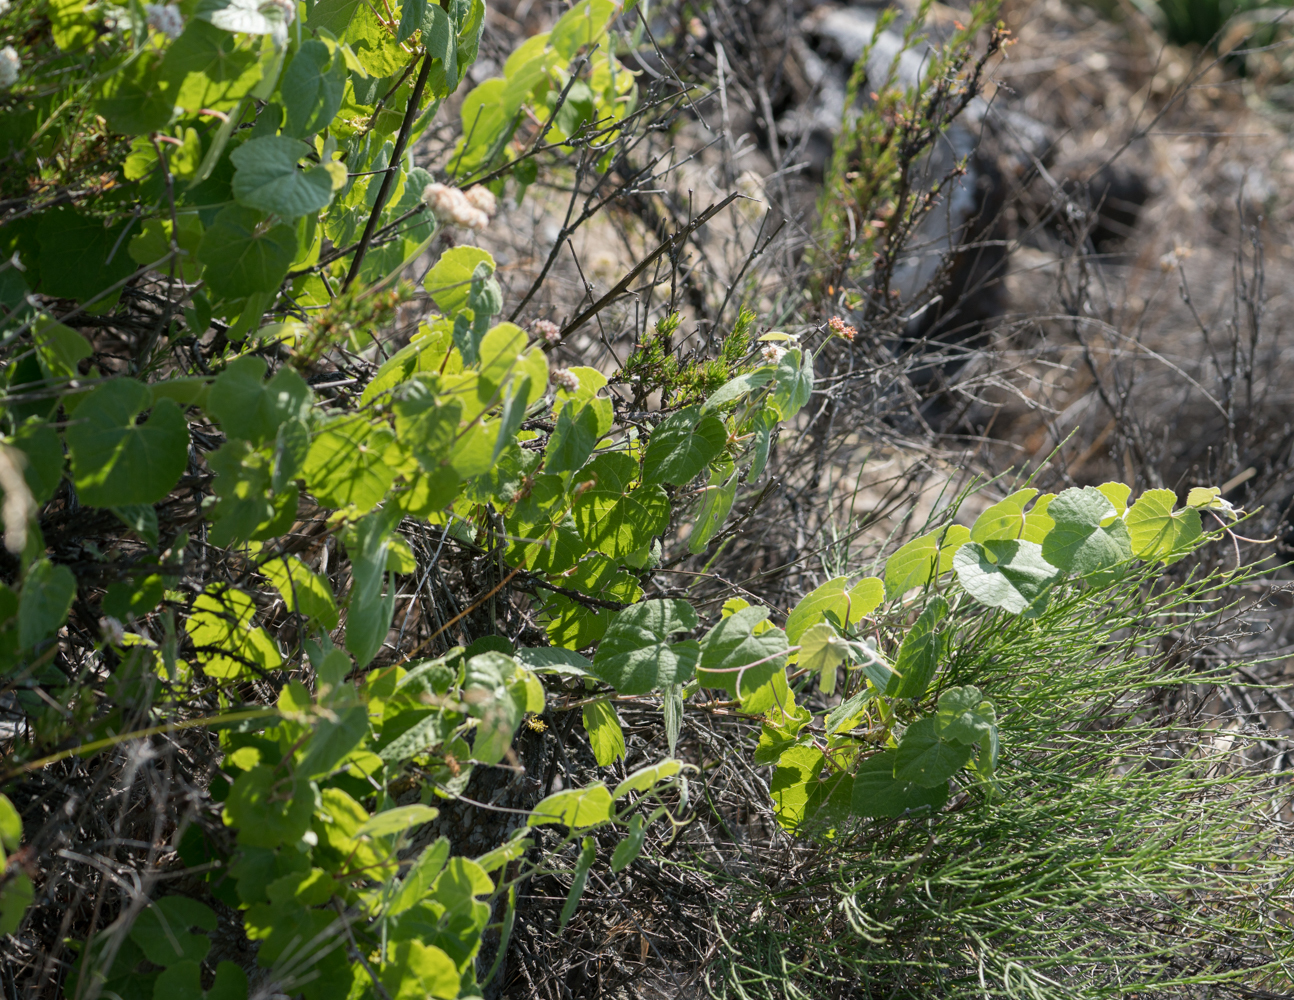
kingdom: Plantae
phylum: Tracheophyta
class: Magnoliopsida
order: Vitales
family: Vitaceae
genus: Vitis
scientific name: Vitis girdiana
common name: Desert wild grape
